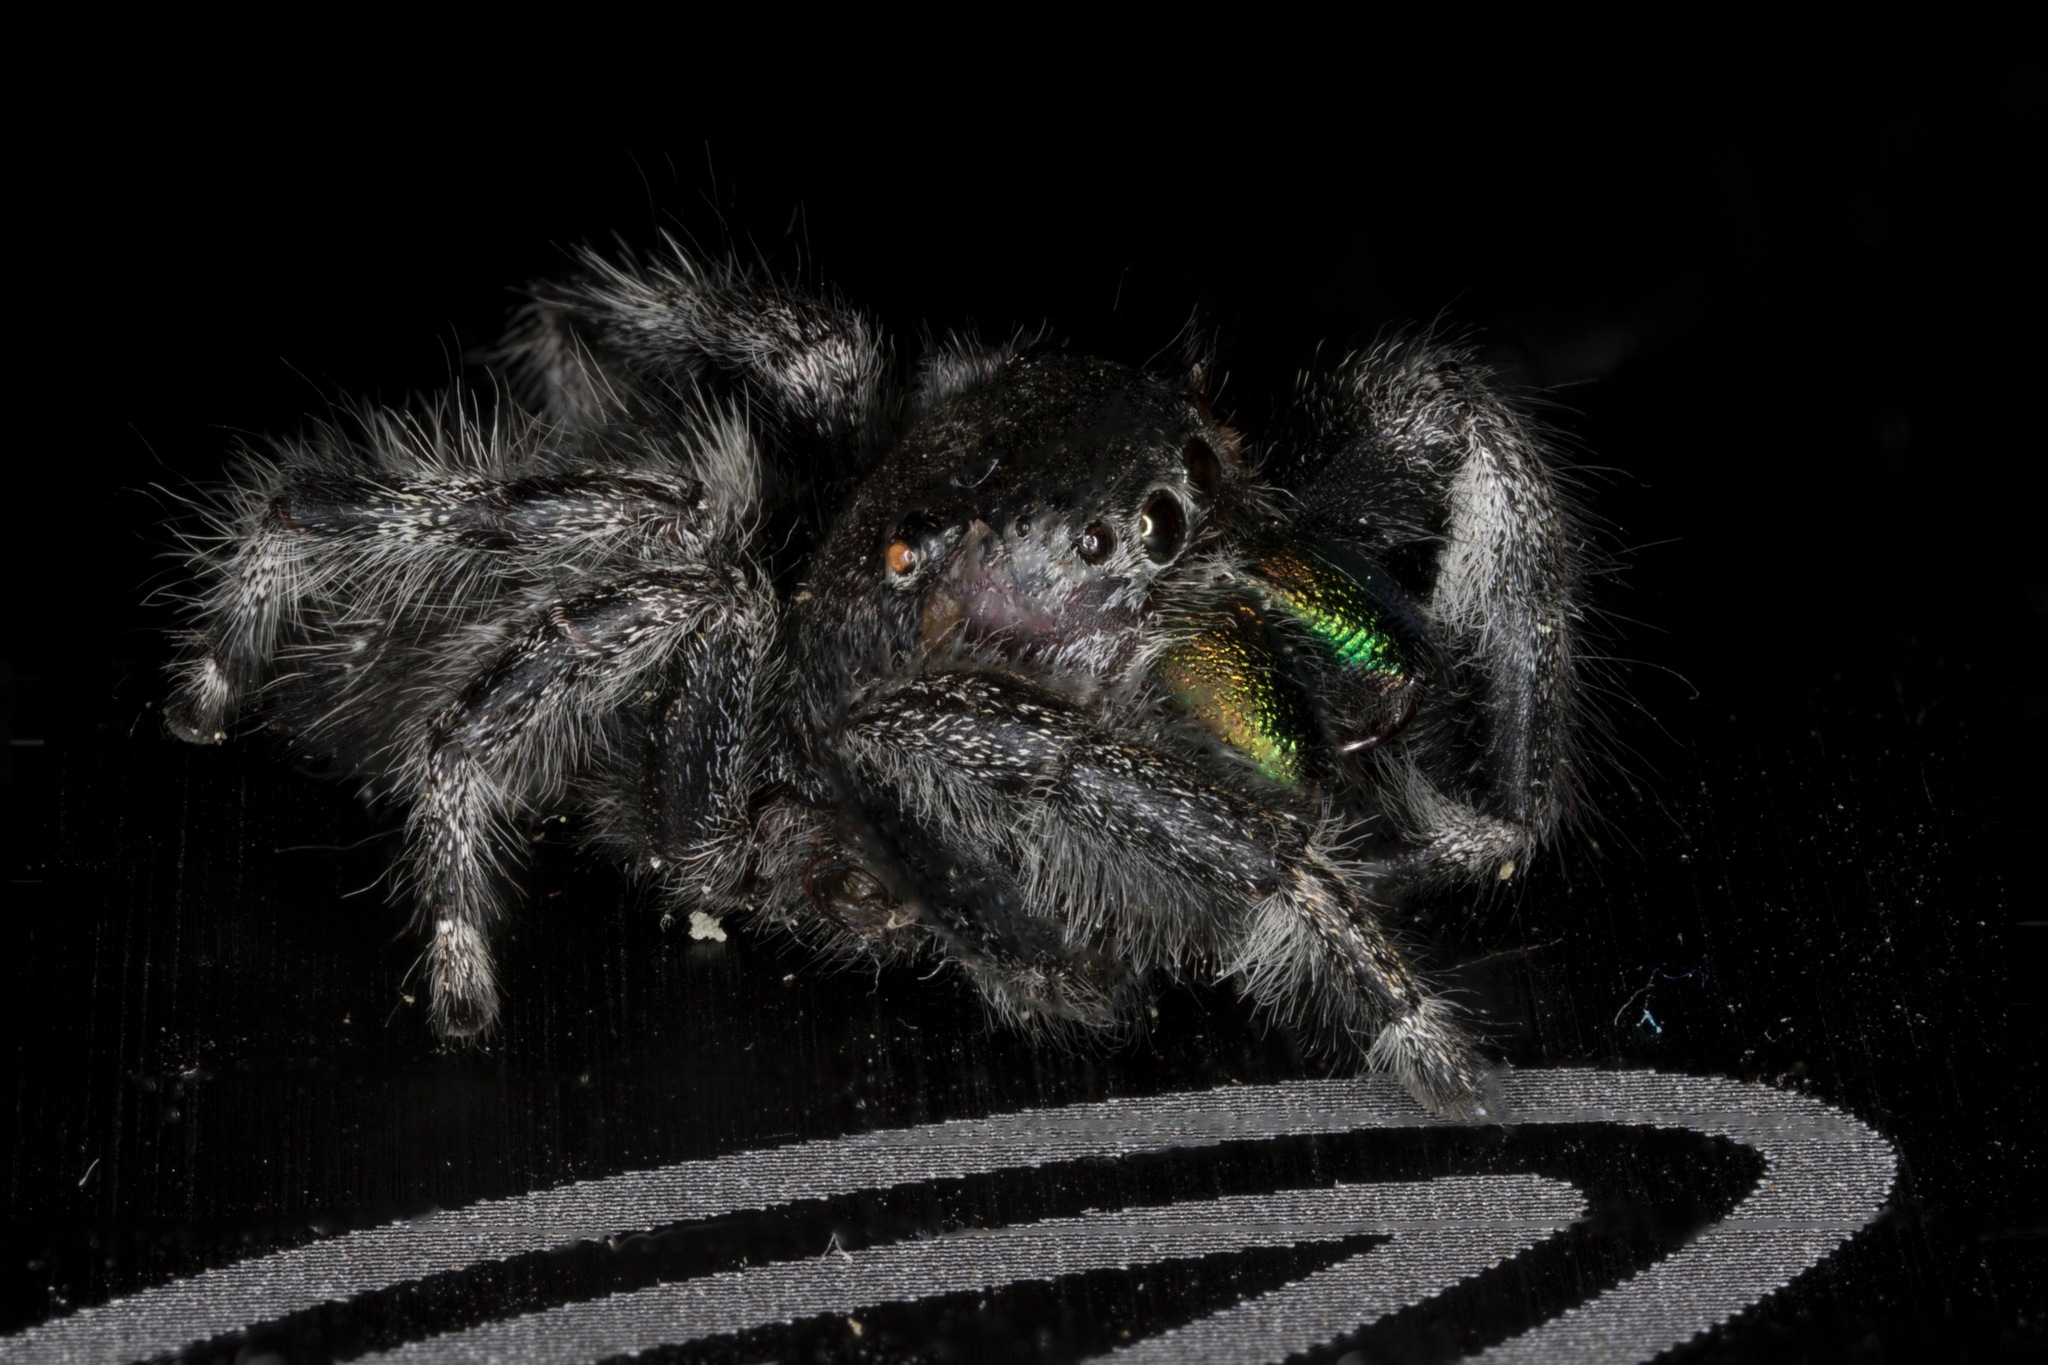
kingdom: Animalia
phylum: Arthropoda
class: Arachnida
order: Araneae
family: Salticidae
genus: Phidippus
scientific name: Phidippus audax
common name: Bold jumper
